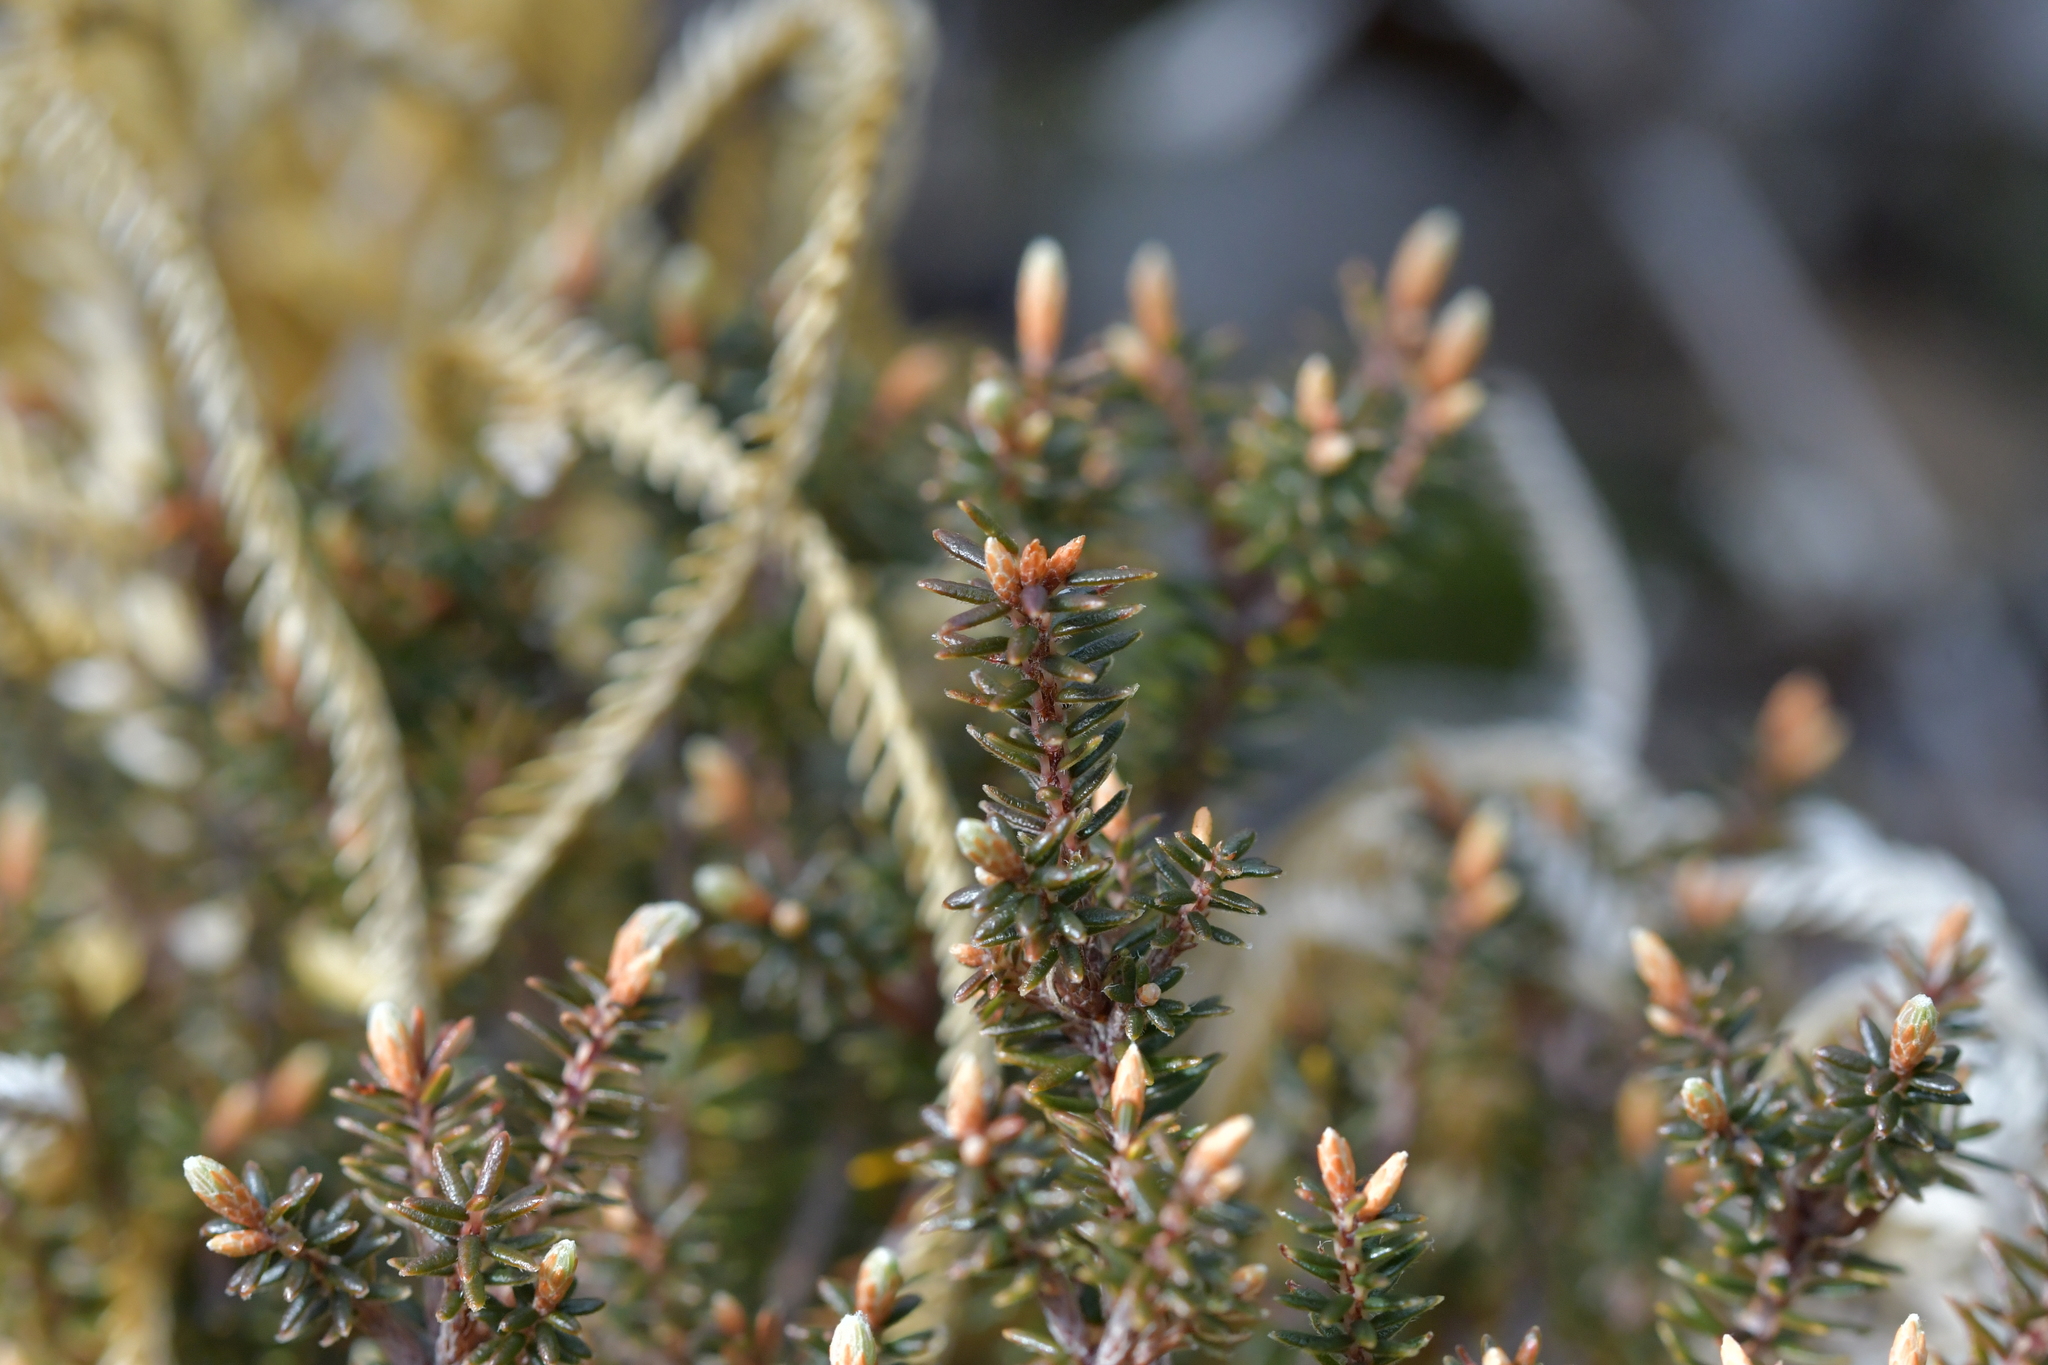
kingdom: Plantae
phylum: Tracheophyta
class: Magnoliopsida
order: Ericales
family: Ericaceae
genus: Androstoma
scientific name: Androstoma empetrifolia
